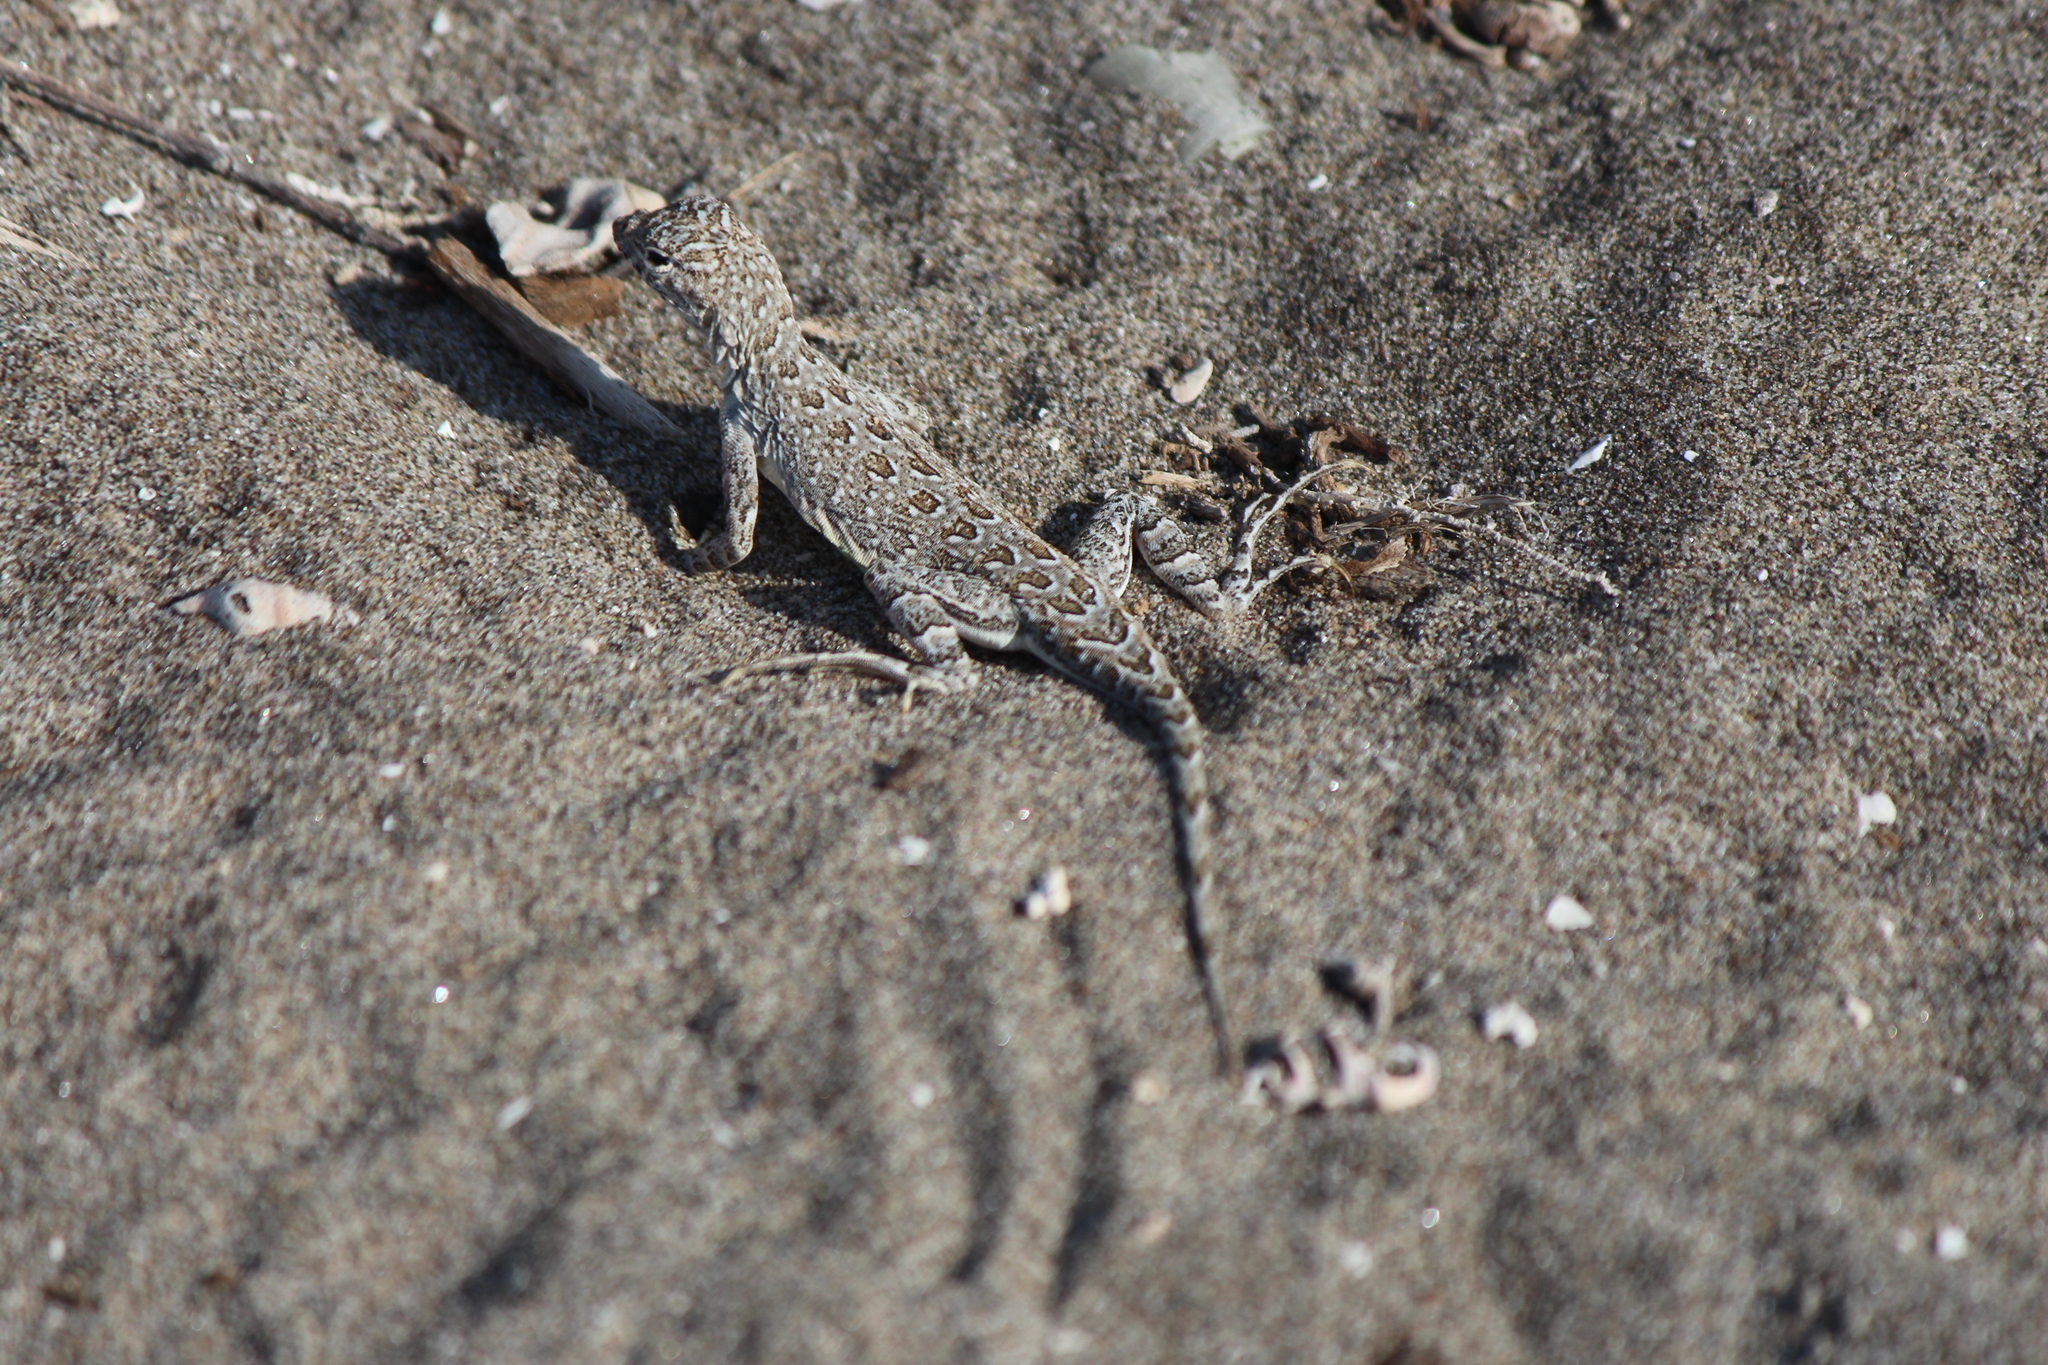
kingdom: Animalia
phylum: Chordata
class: Squamata
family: Phrynosomatidae
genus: Callisaurus
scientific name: Callisaurus draconoides
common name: Zebra-tailed lizard
